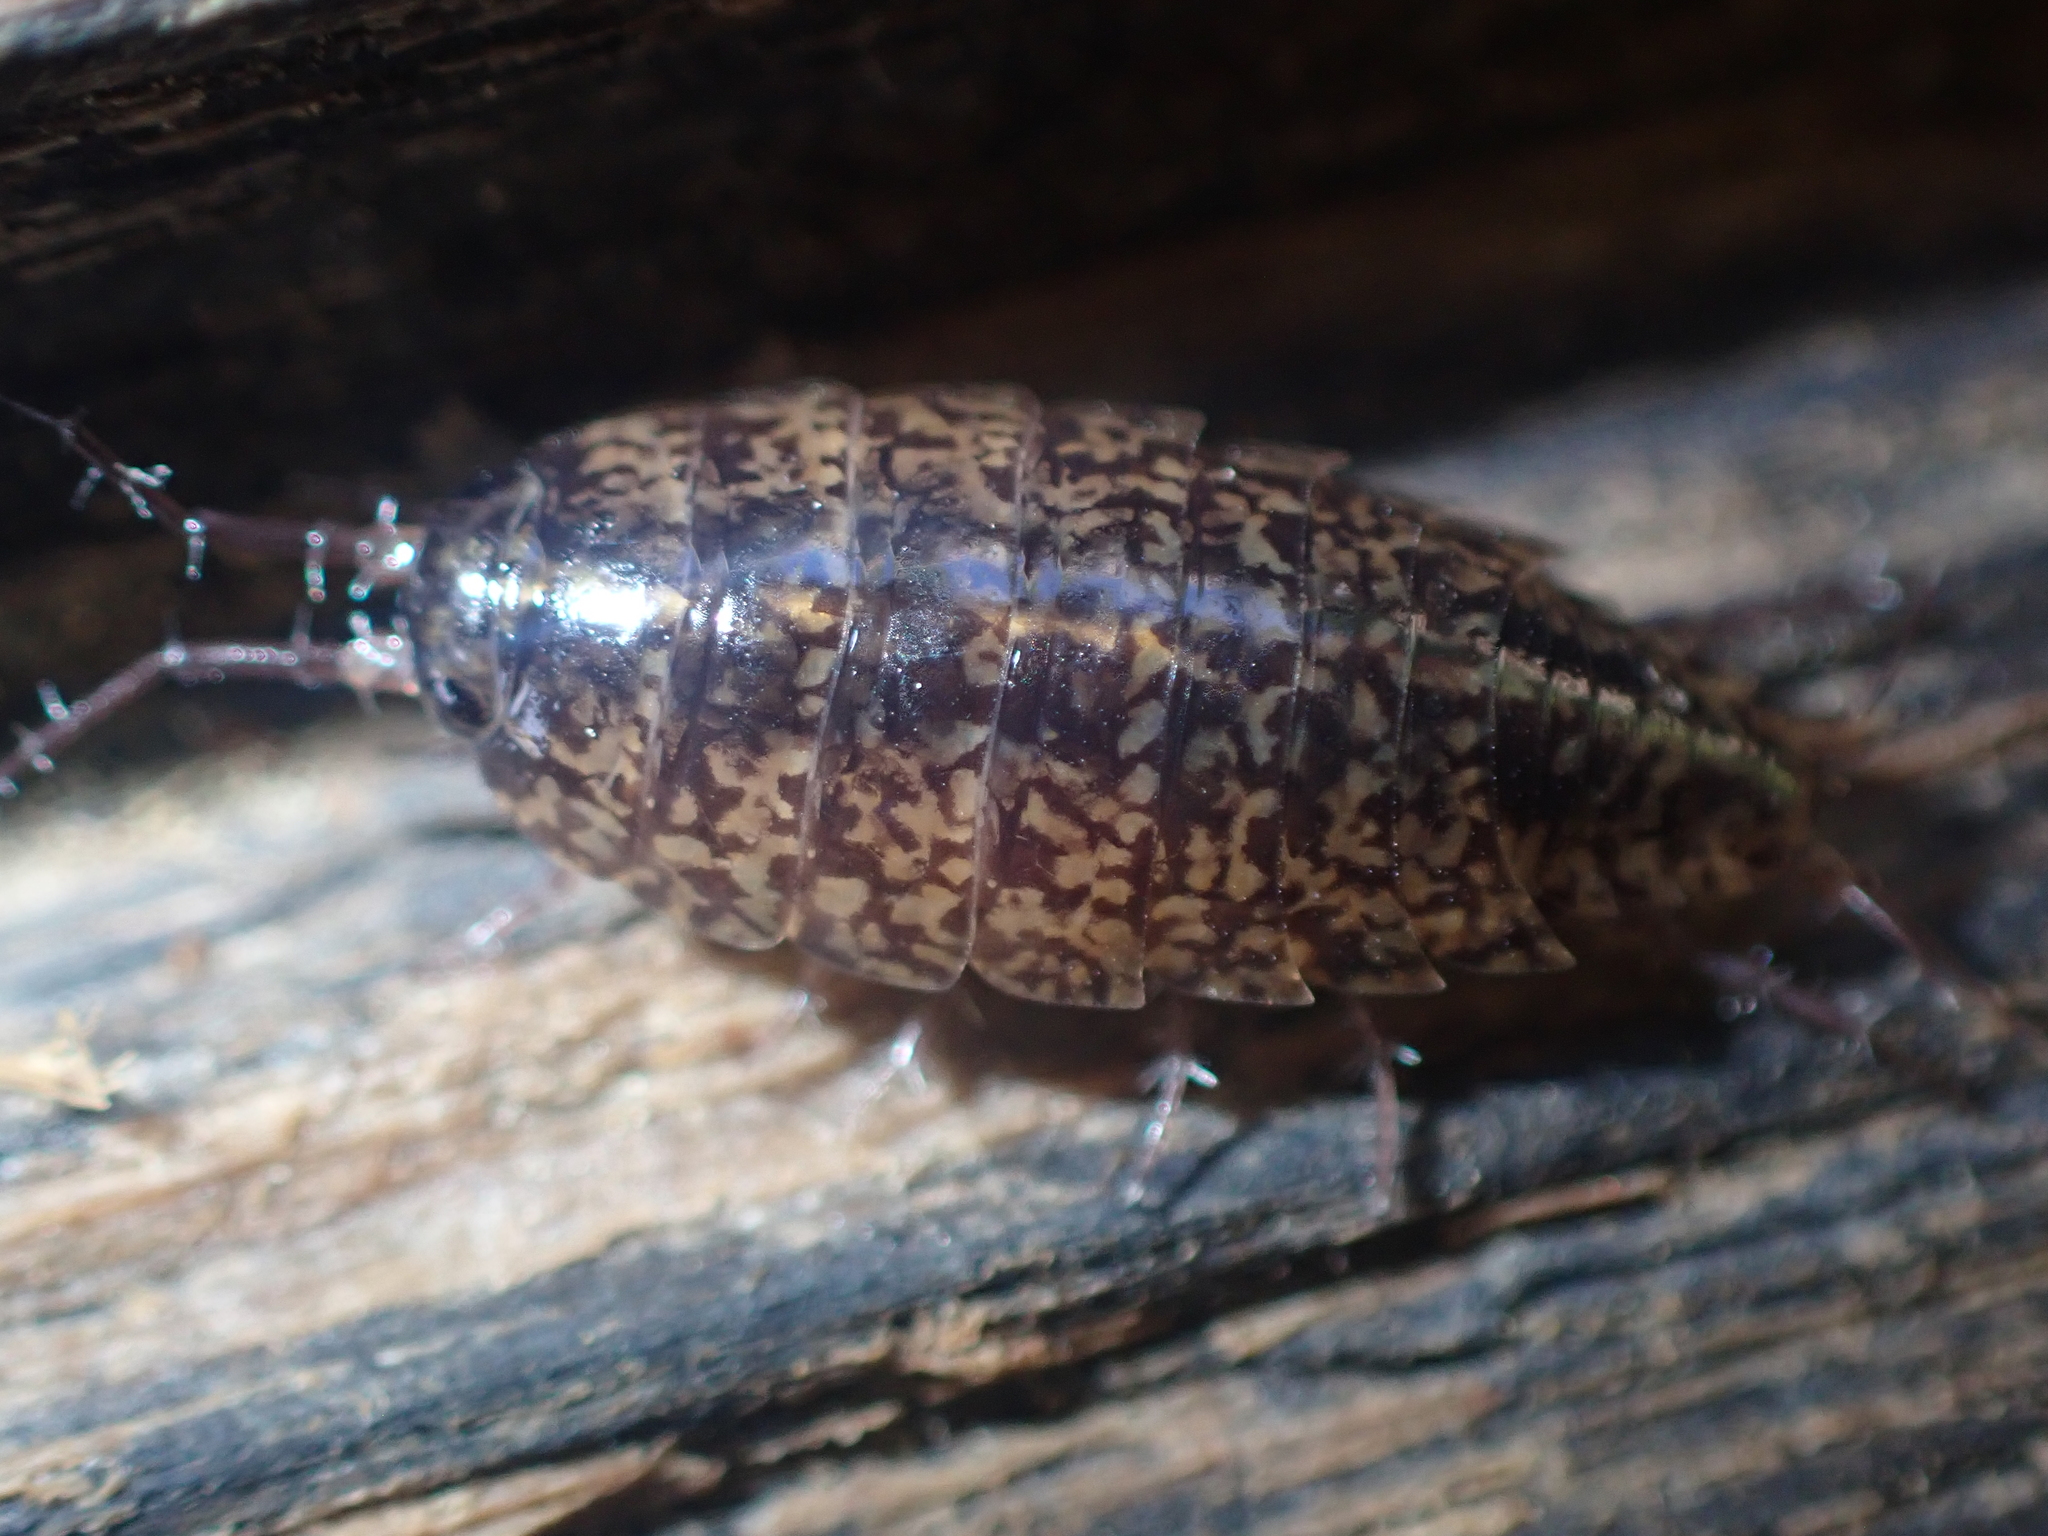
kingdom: Animalia
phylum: Arthropoda
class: Malacostraca
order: Isopoda
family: Ligiidae
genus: Ligidium
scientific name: Ligidium elrodii
